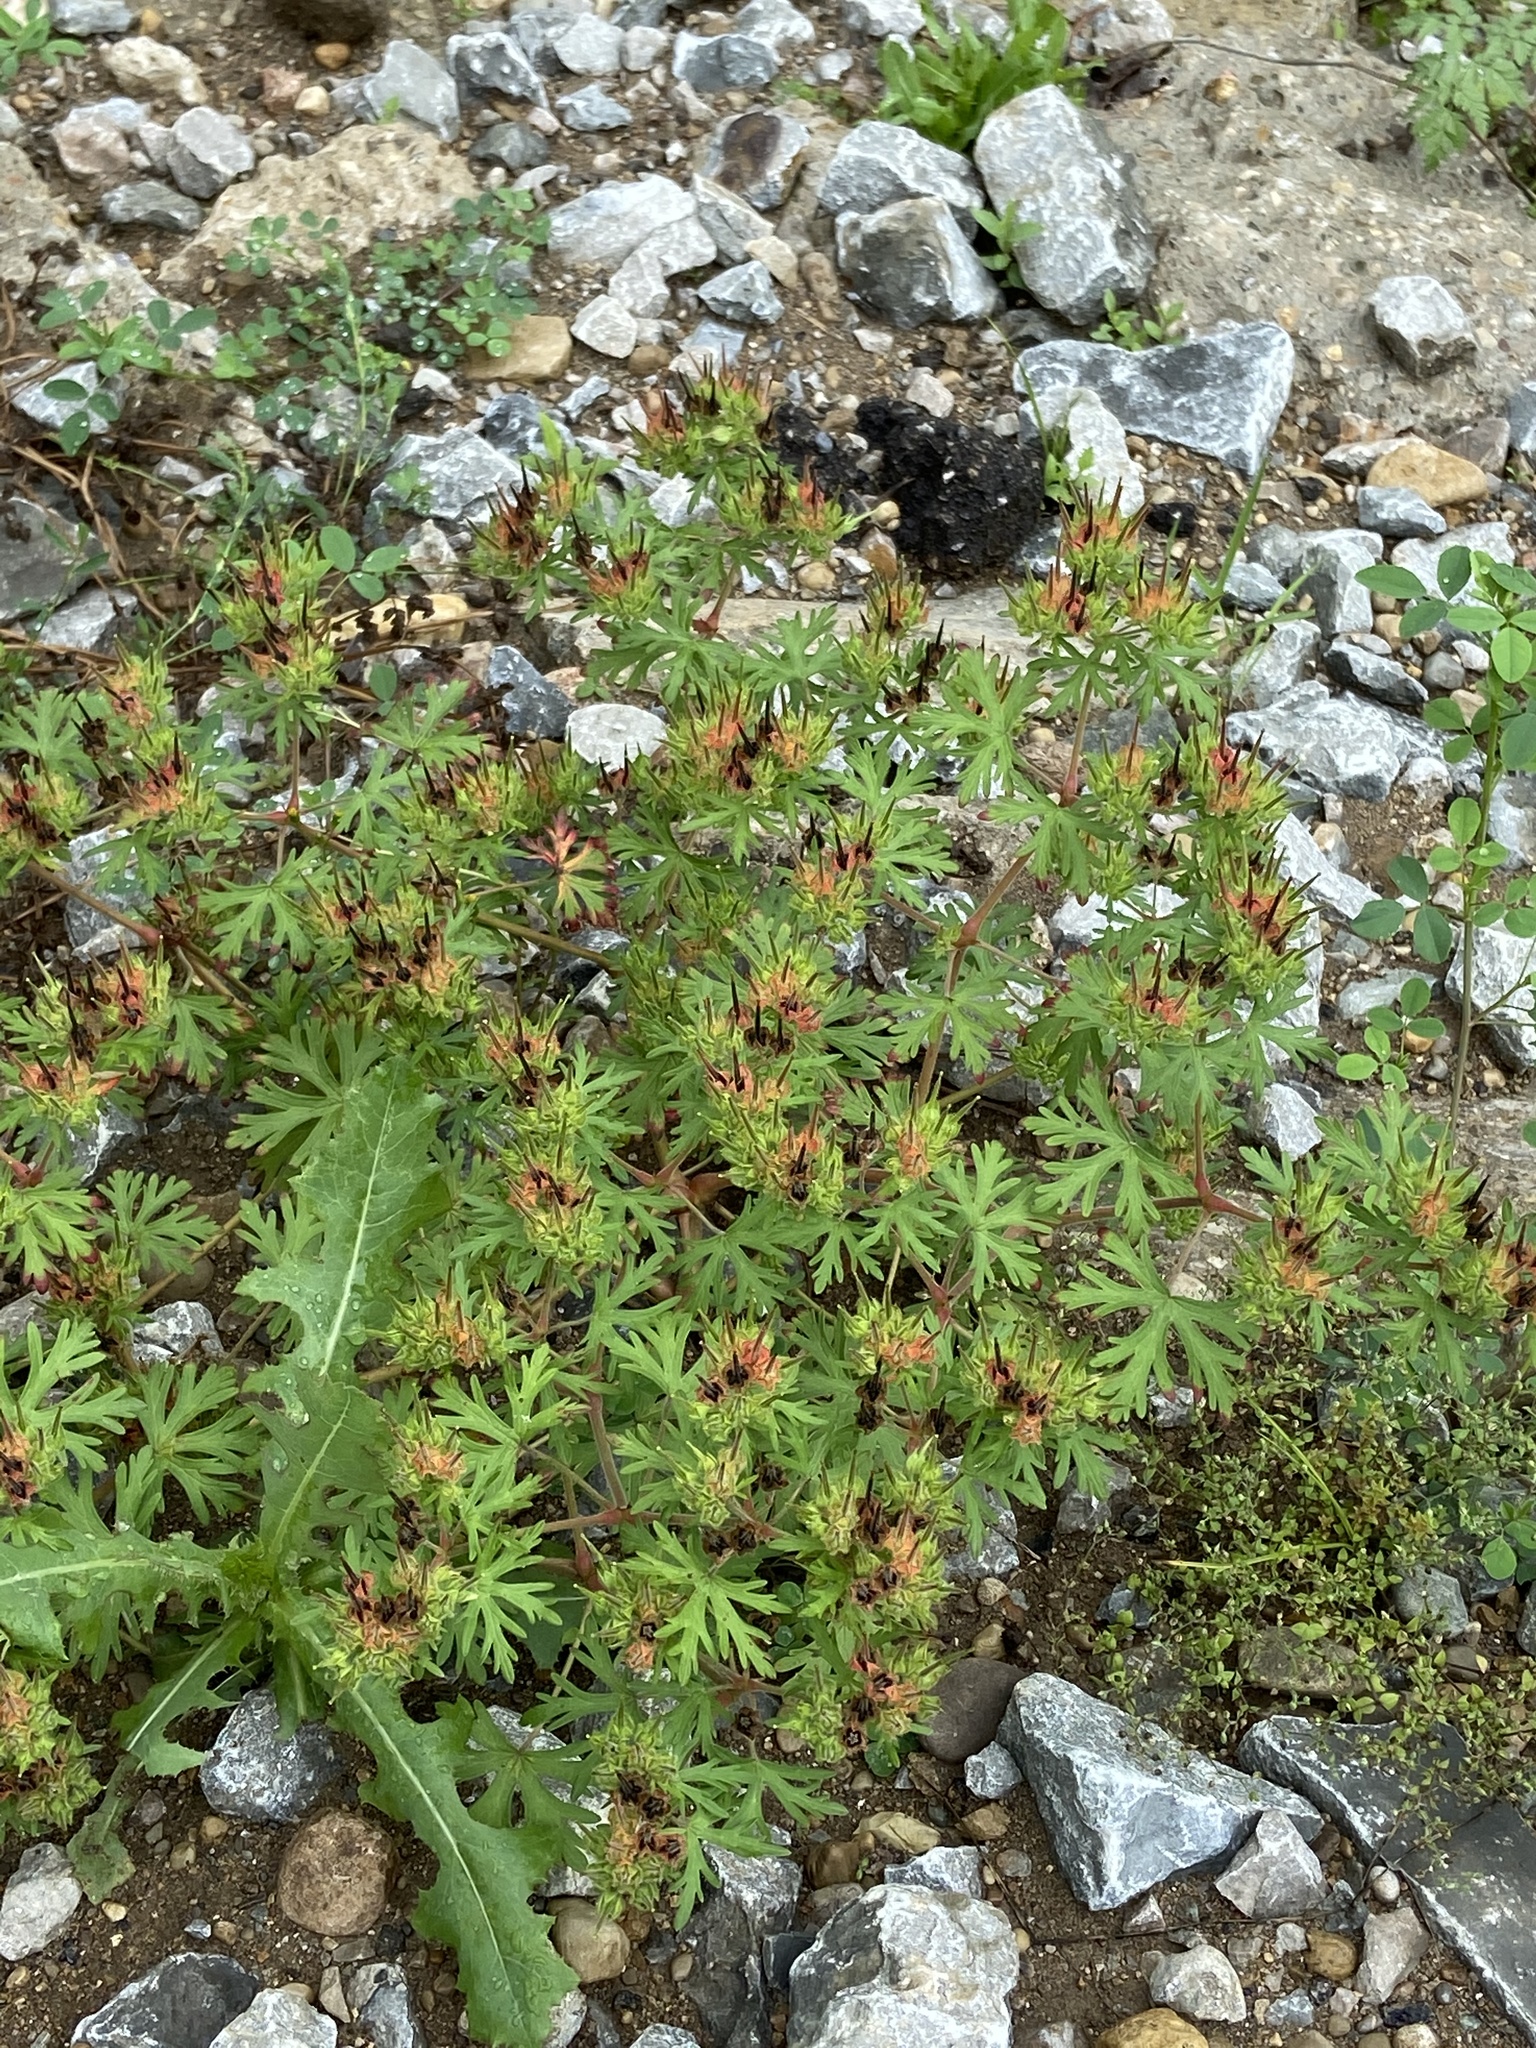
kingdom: Plantae
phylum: Tracheophyta
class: Magnoliopsida
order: Geraniales
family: Geraniaceae
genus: Geranium
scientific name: Geranium carolinianum
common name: Carolina crane's-bill
